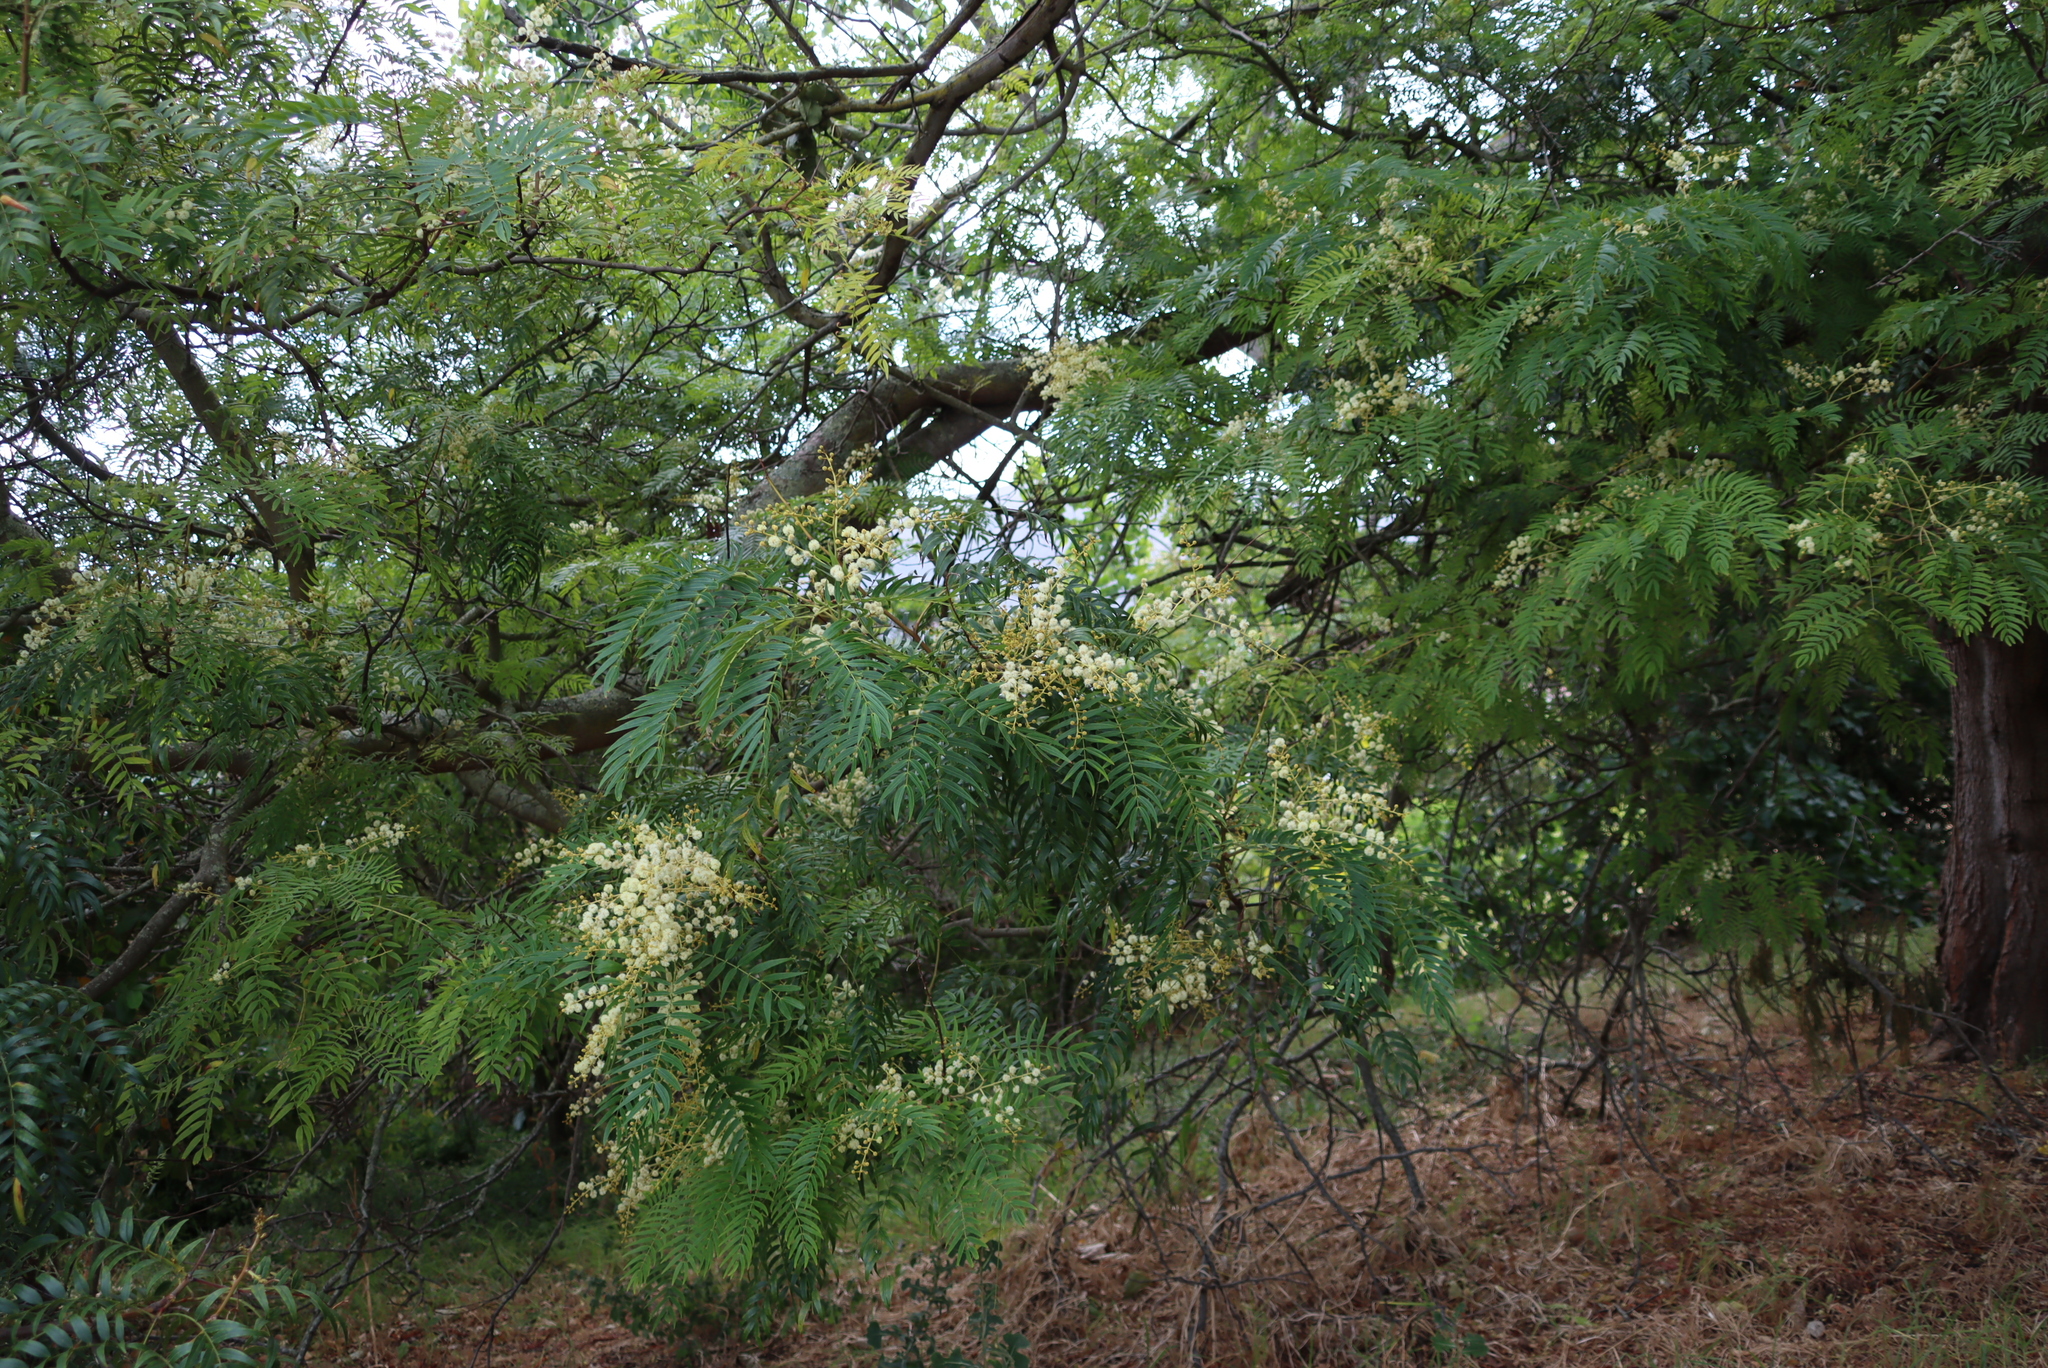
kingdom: Plantae
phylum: Tracheophyta
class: Magnoliopsida
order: Fabales
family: Fabaceae
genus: Acacia
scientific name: Acacia elata
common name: Cedar wattle
